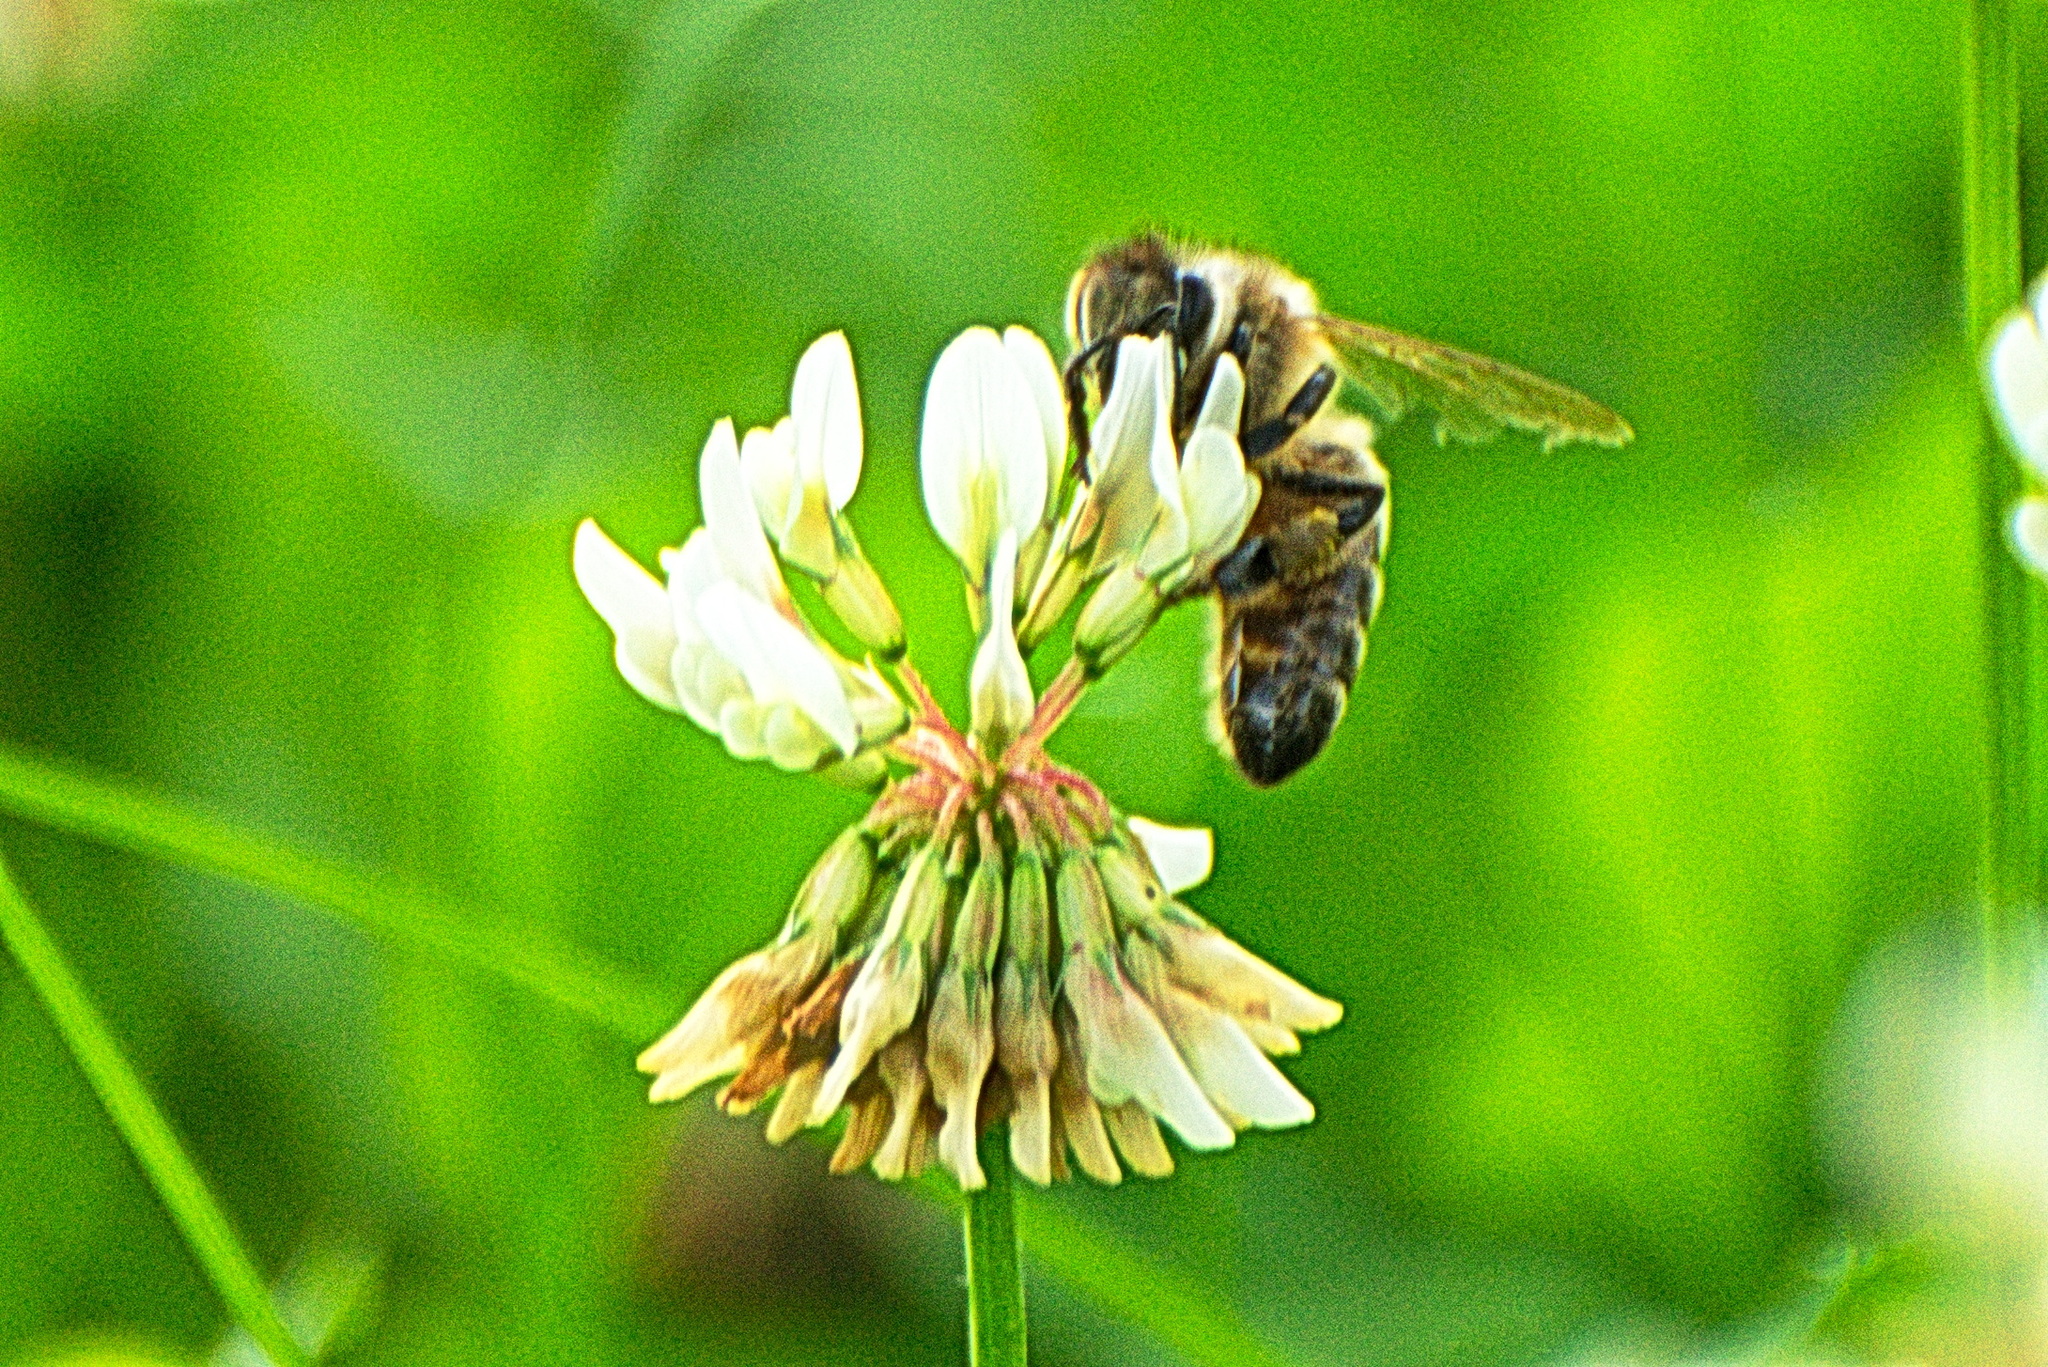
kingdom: Animalia
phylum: Arthropoda
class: Insecta
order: Hymenoptera
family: Apidae
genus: Apis
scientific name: Apis mellifera
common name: Honey bee
